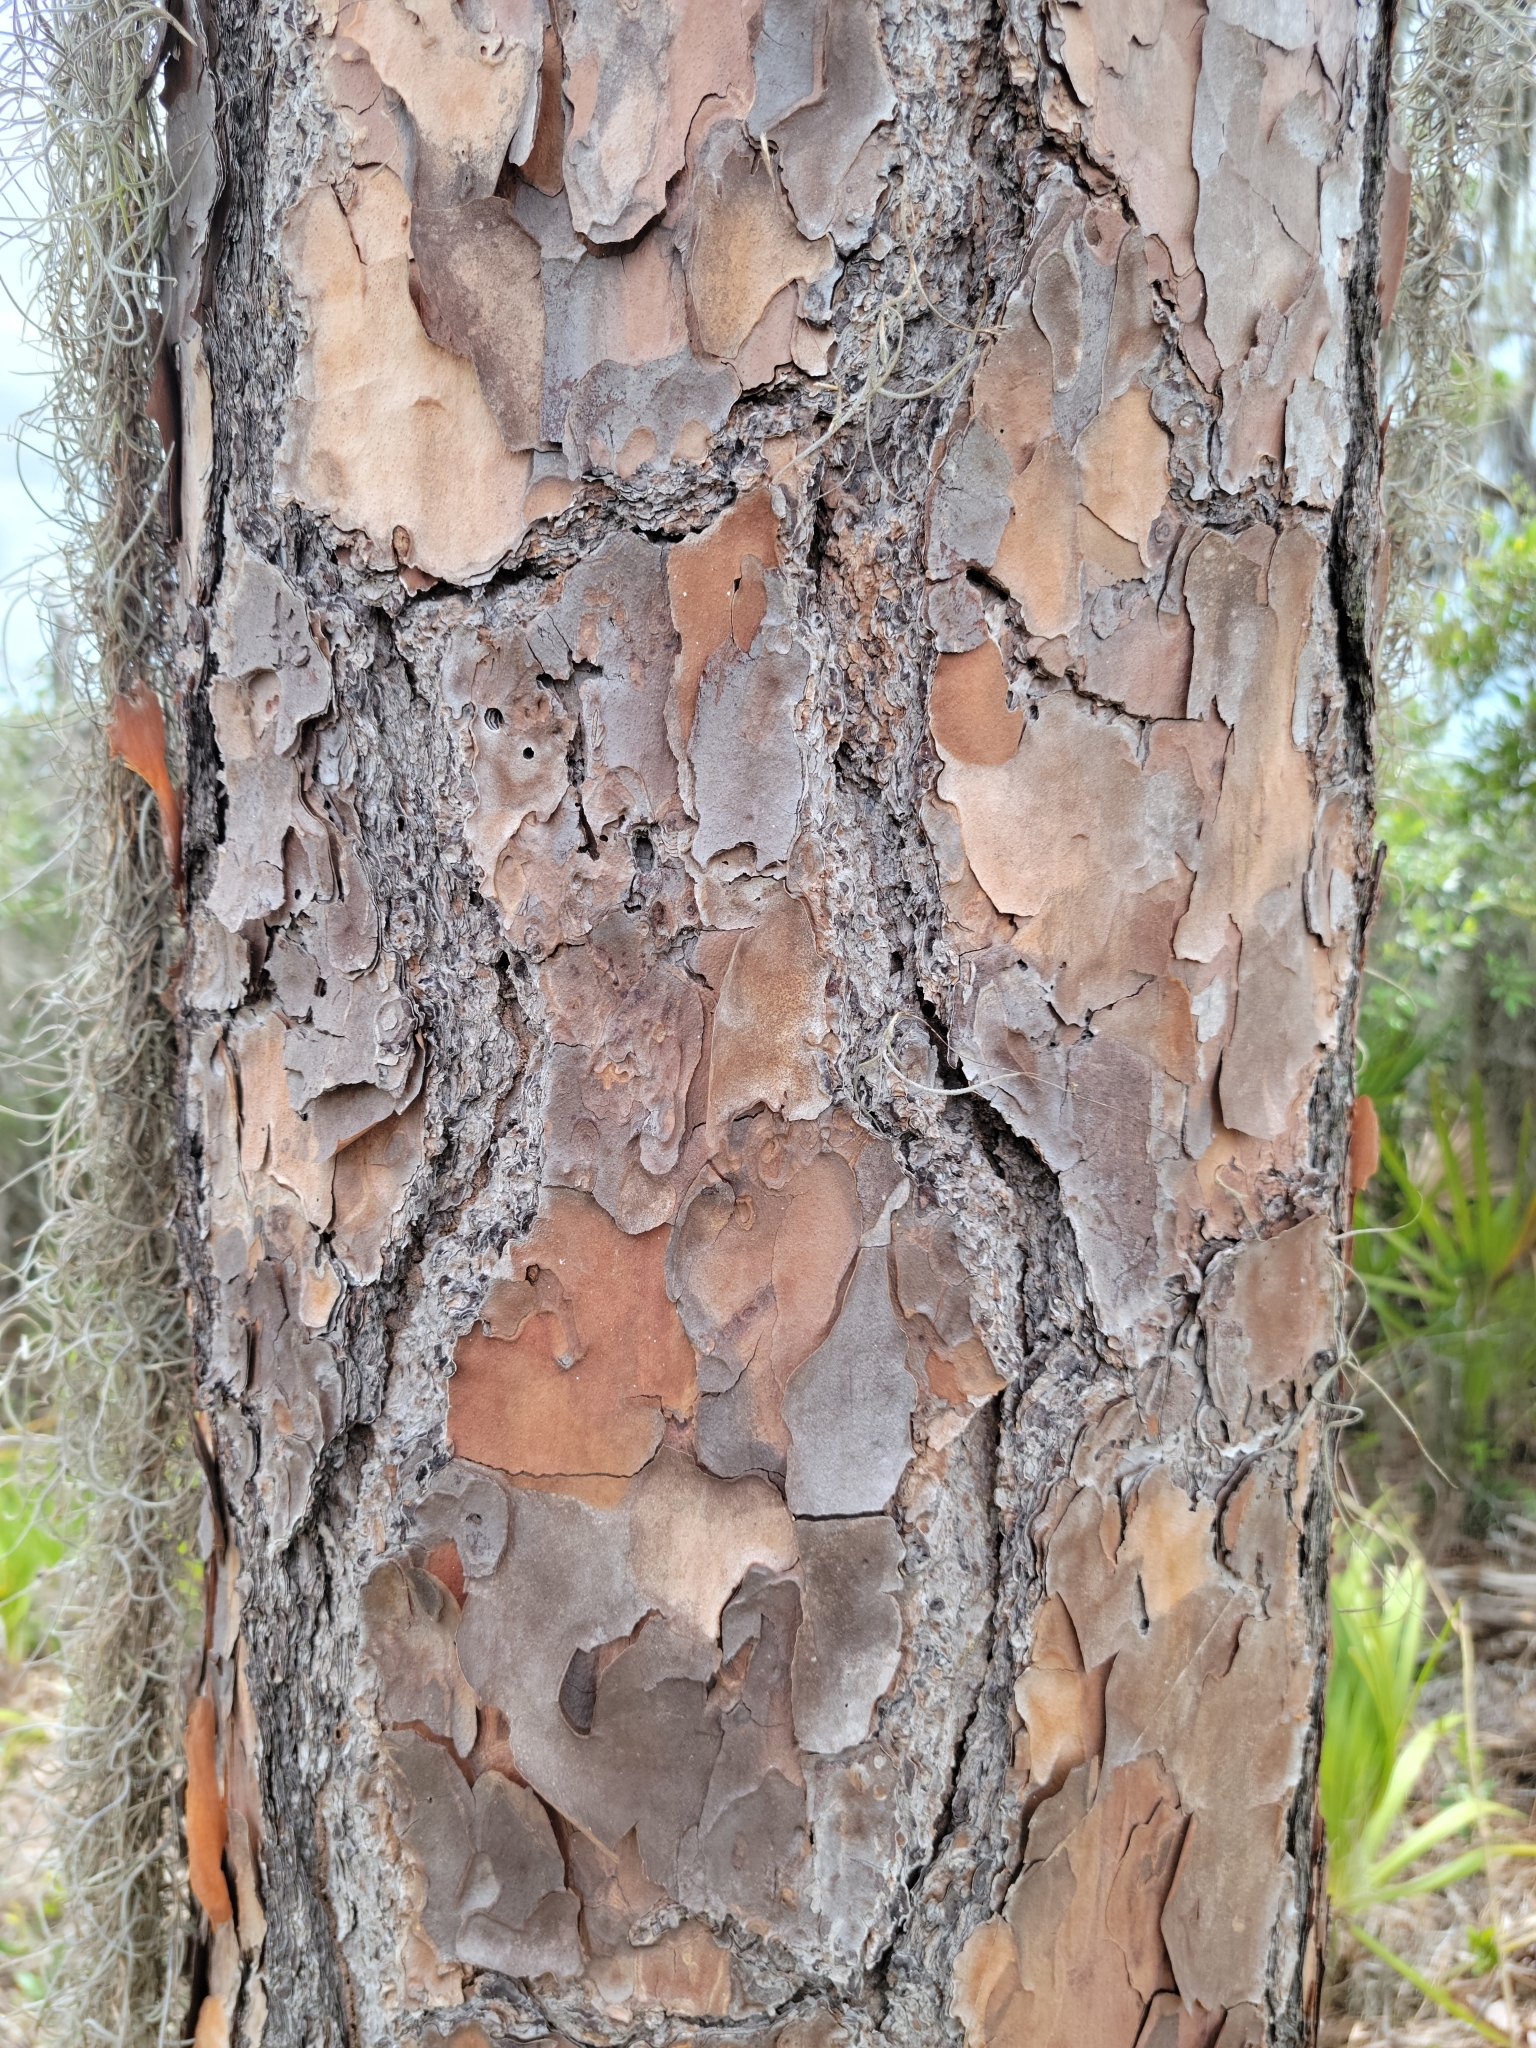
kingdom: Plantae
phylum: Tracheophyta
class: Pinopsida
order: Pinales
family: Pinaceae
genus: Pinus
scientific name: Pinus elliottii
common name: Slash pine
